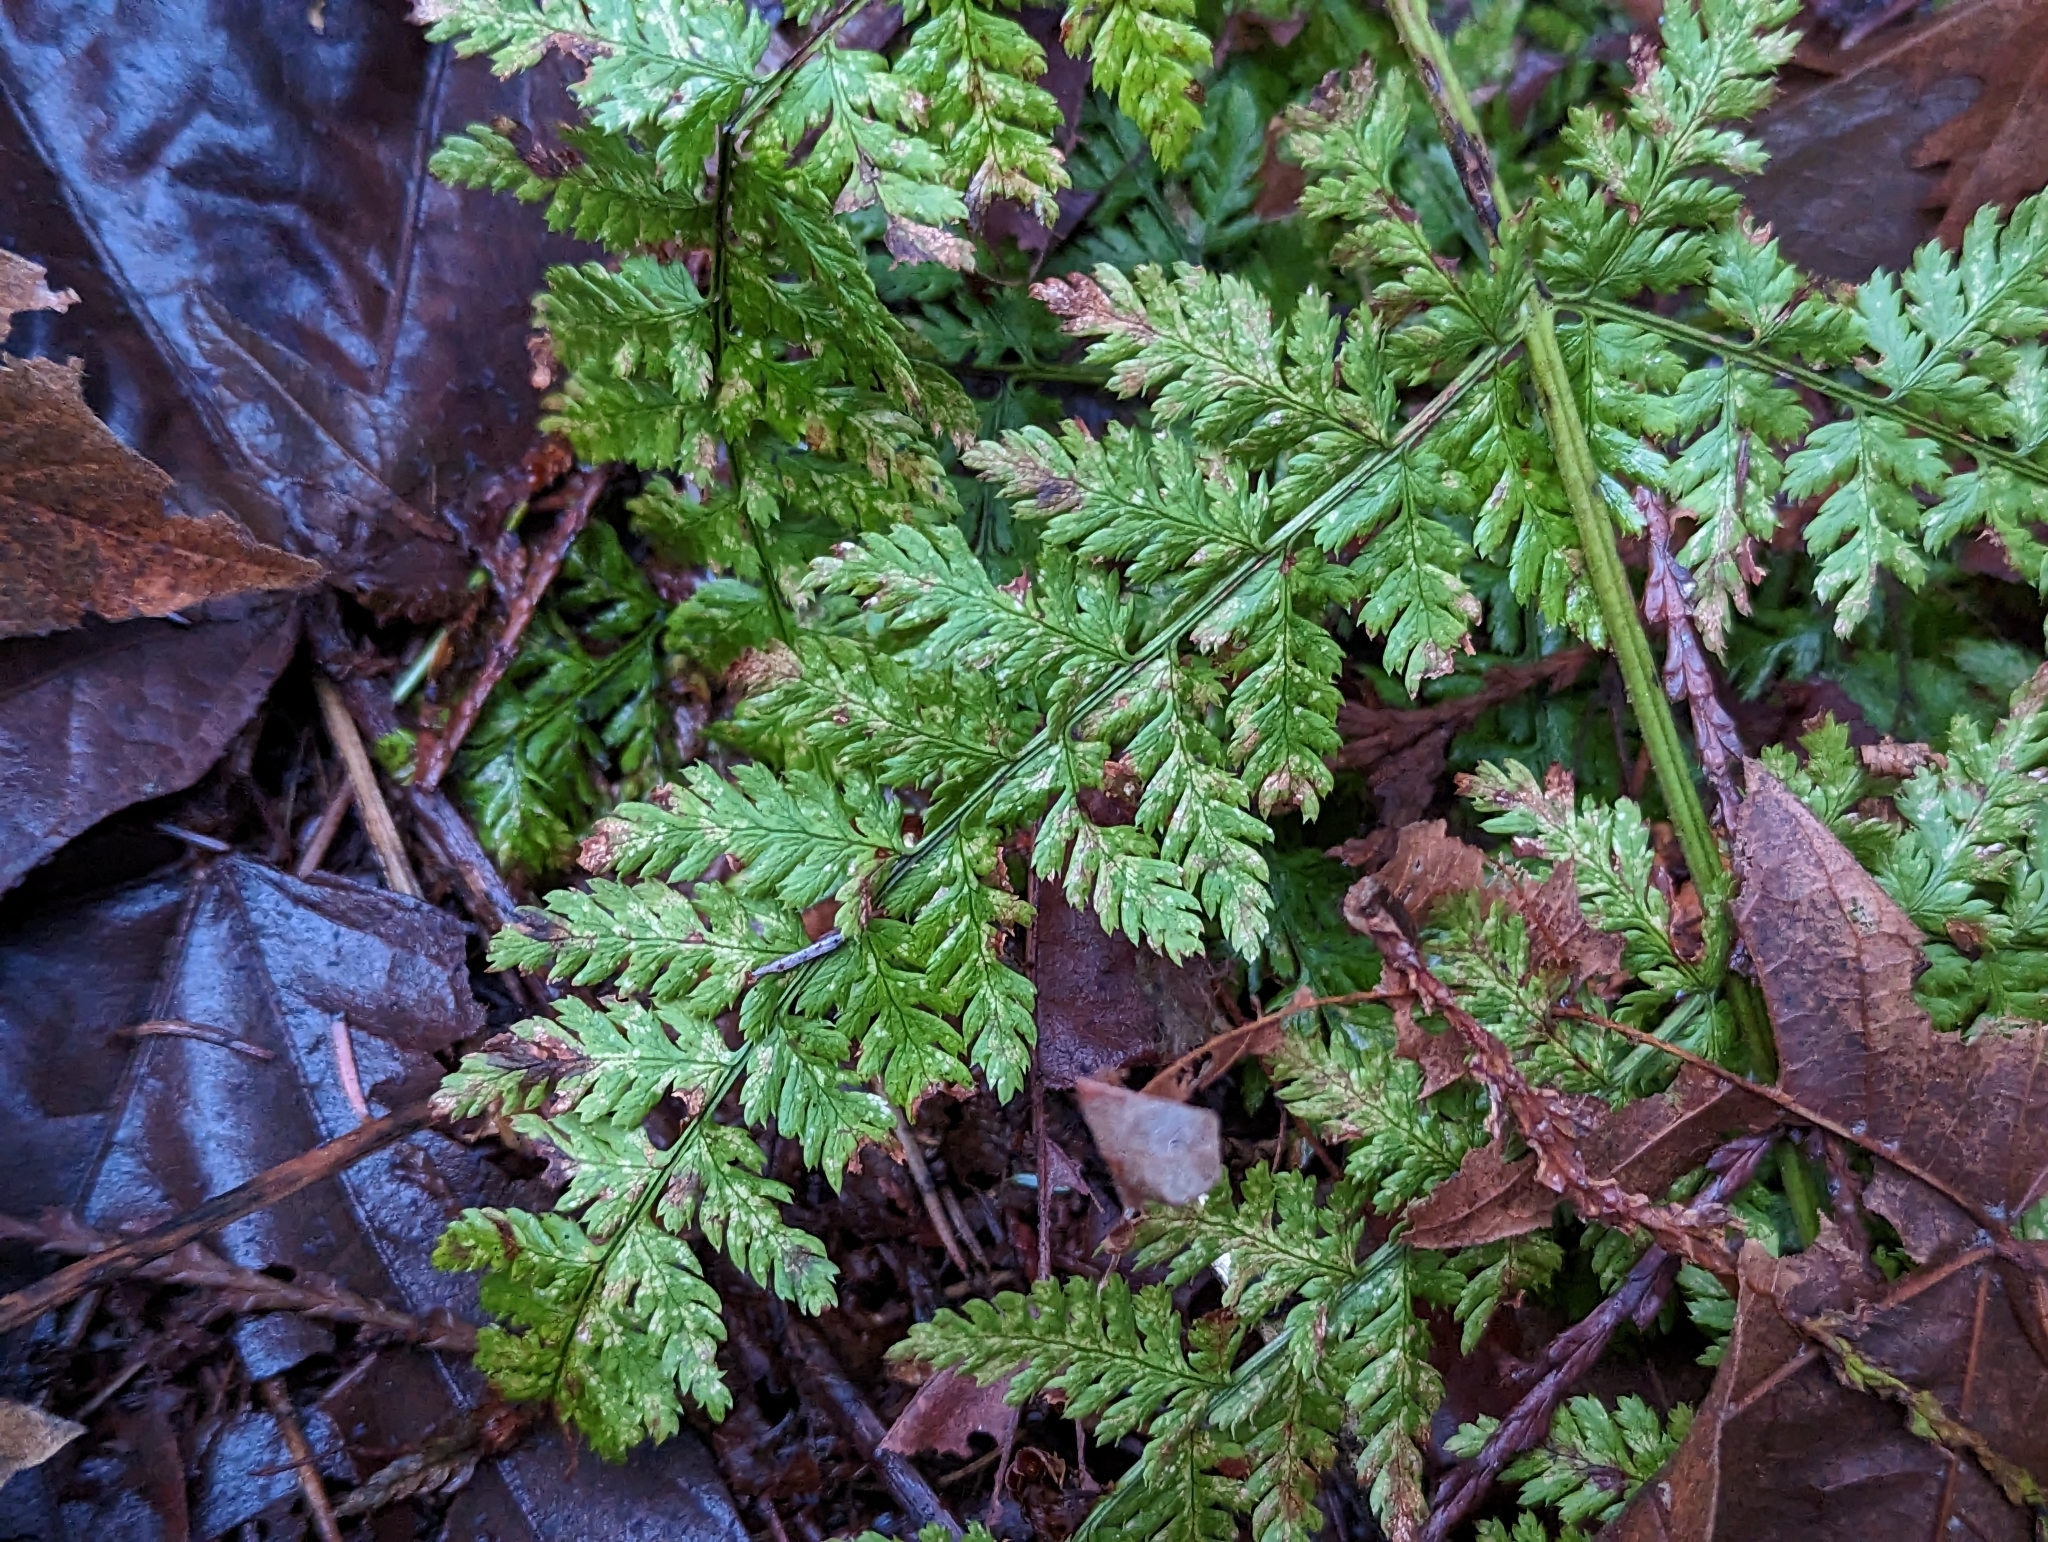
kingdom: Plantae
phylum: Tracheophyta
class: Polypodiopsida
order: Polypodiales
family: Dryopteridaceae
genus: Dryopteris
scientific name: Dryopteris expansa
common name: Northern buckler fern
